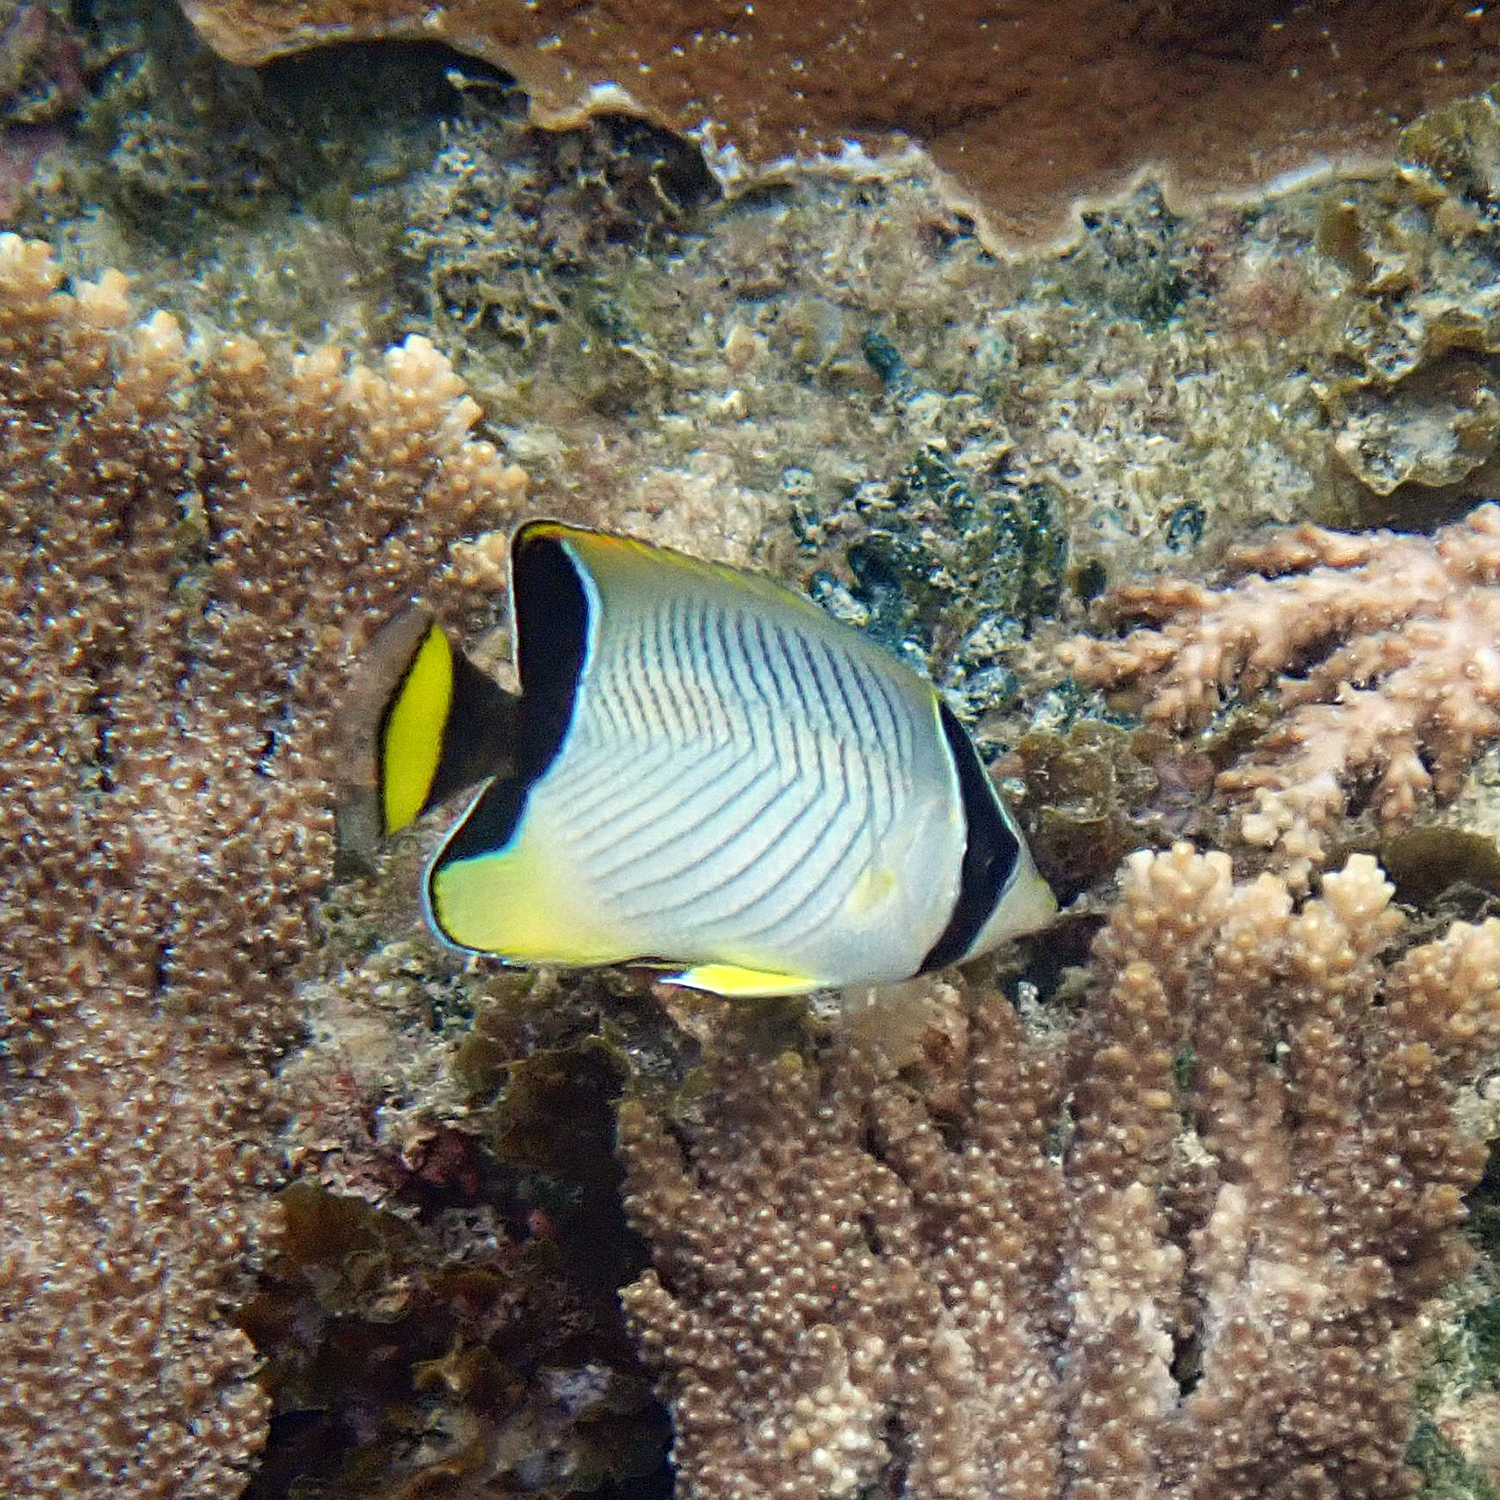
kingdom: Animalia
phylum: Chordata
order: Perciformes
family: Chaetodontidae
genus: Chaetodon
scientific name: Chaetodon trifascialis
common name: Chevroned butterflyfish
